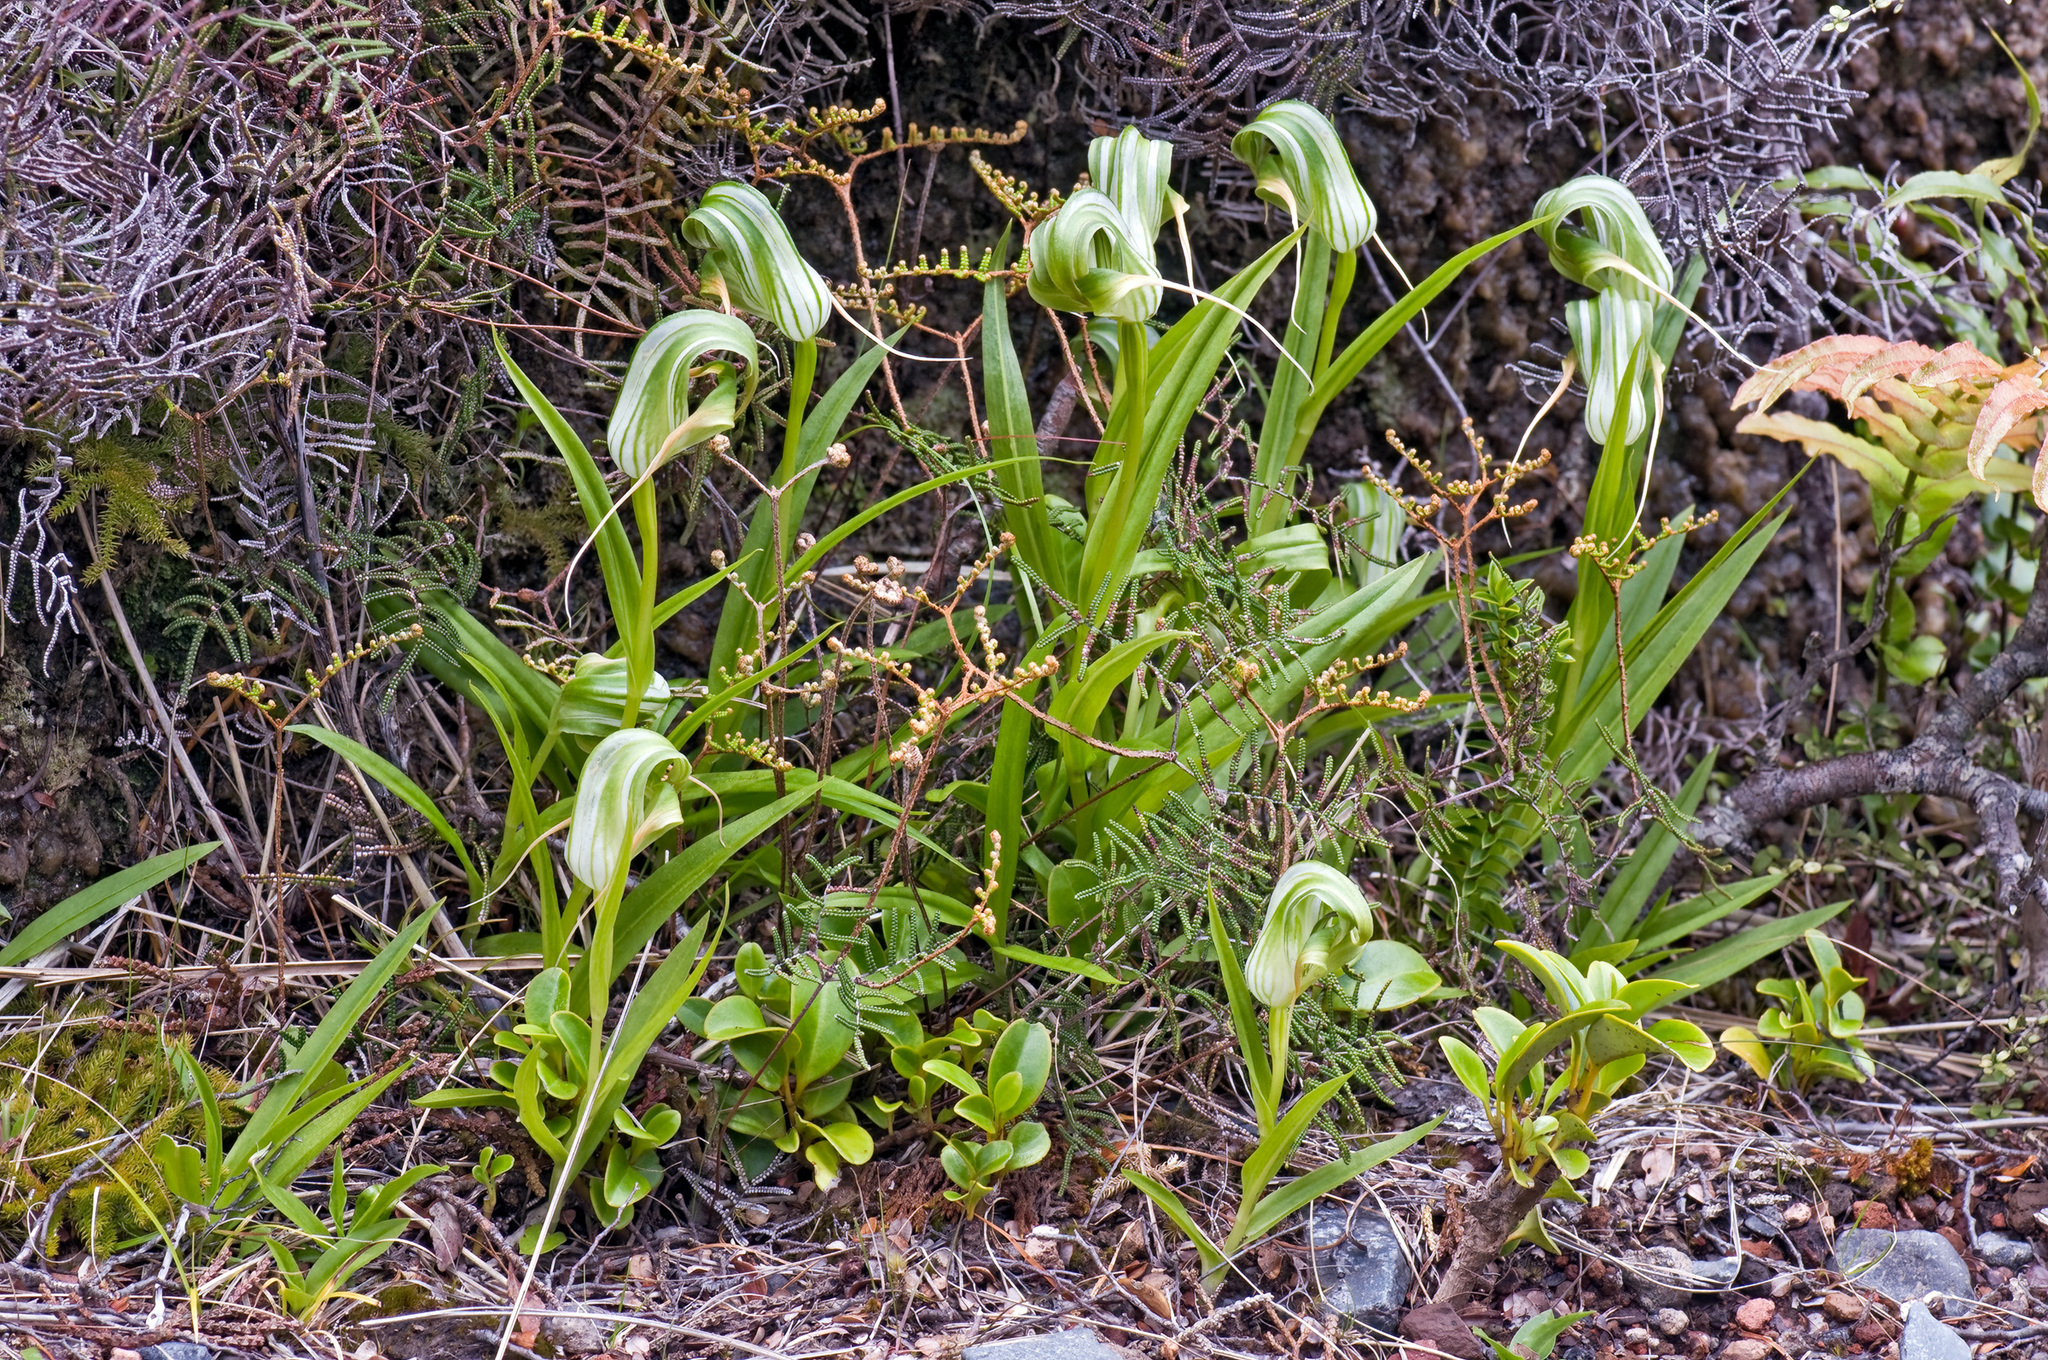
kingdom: Plantae
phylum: Tracheophyta
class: Liliopsida
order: Asparagales
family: Orchidaceae
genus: Pterostylis
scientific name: Pterostylis patens
